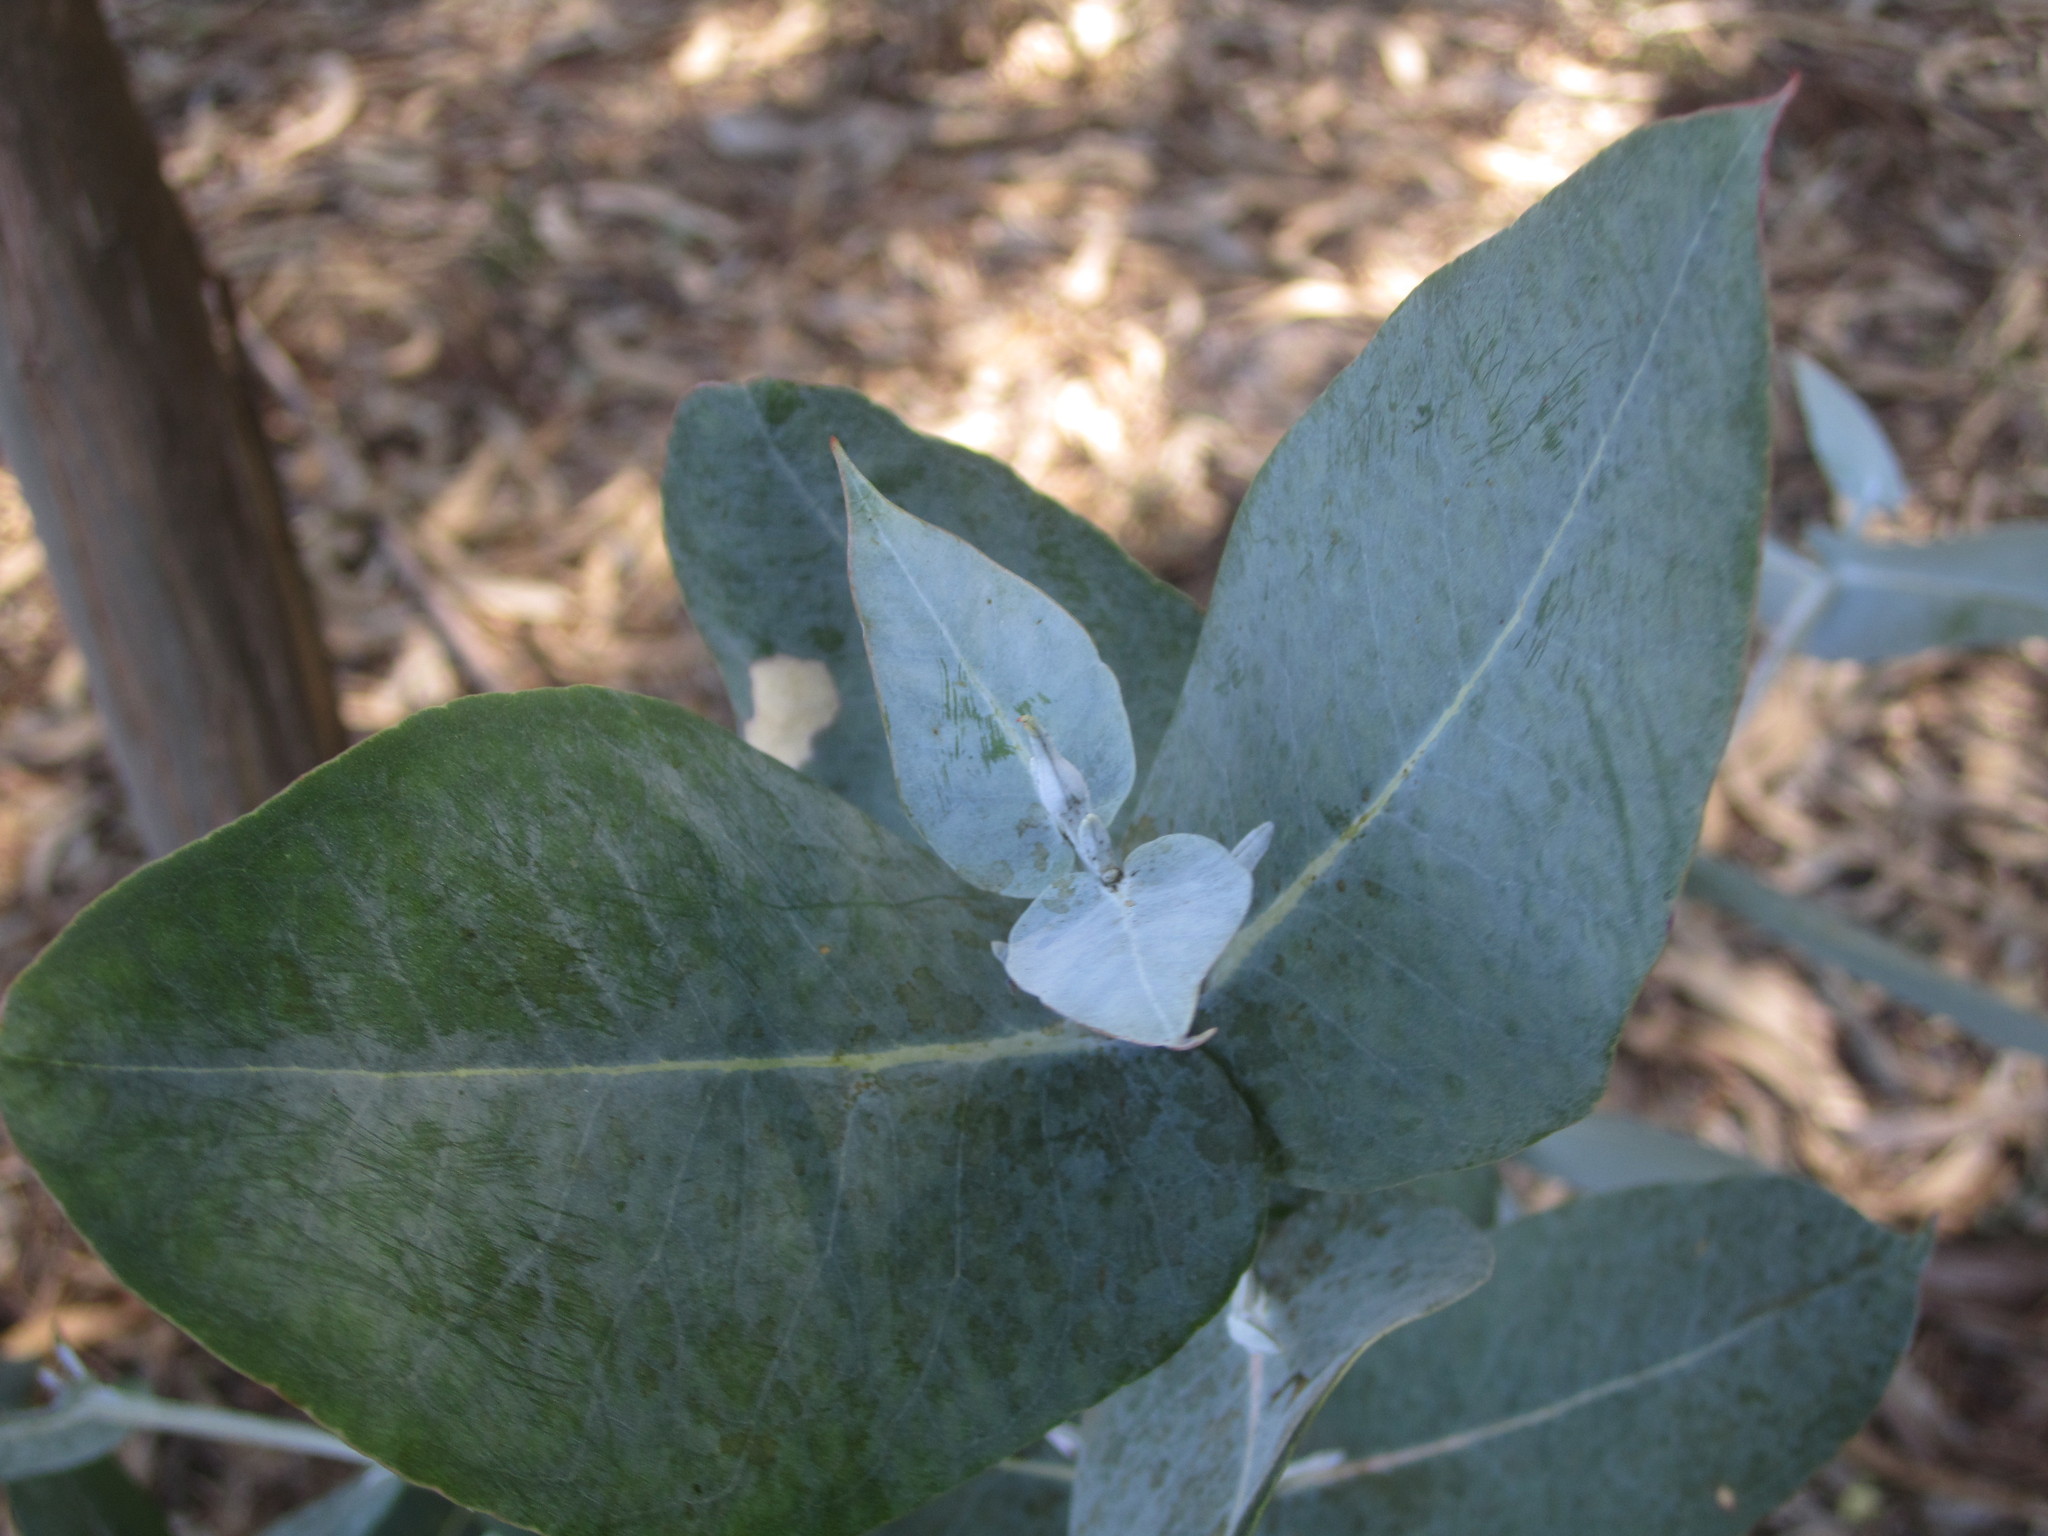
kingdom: Plantae
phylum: Tracheophyta
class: Magnoliopsida
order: Myrtales
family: Myrtaceae
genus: Eucalyptus
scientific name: Eucalyptus globulus
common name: Southern blue-gum
